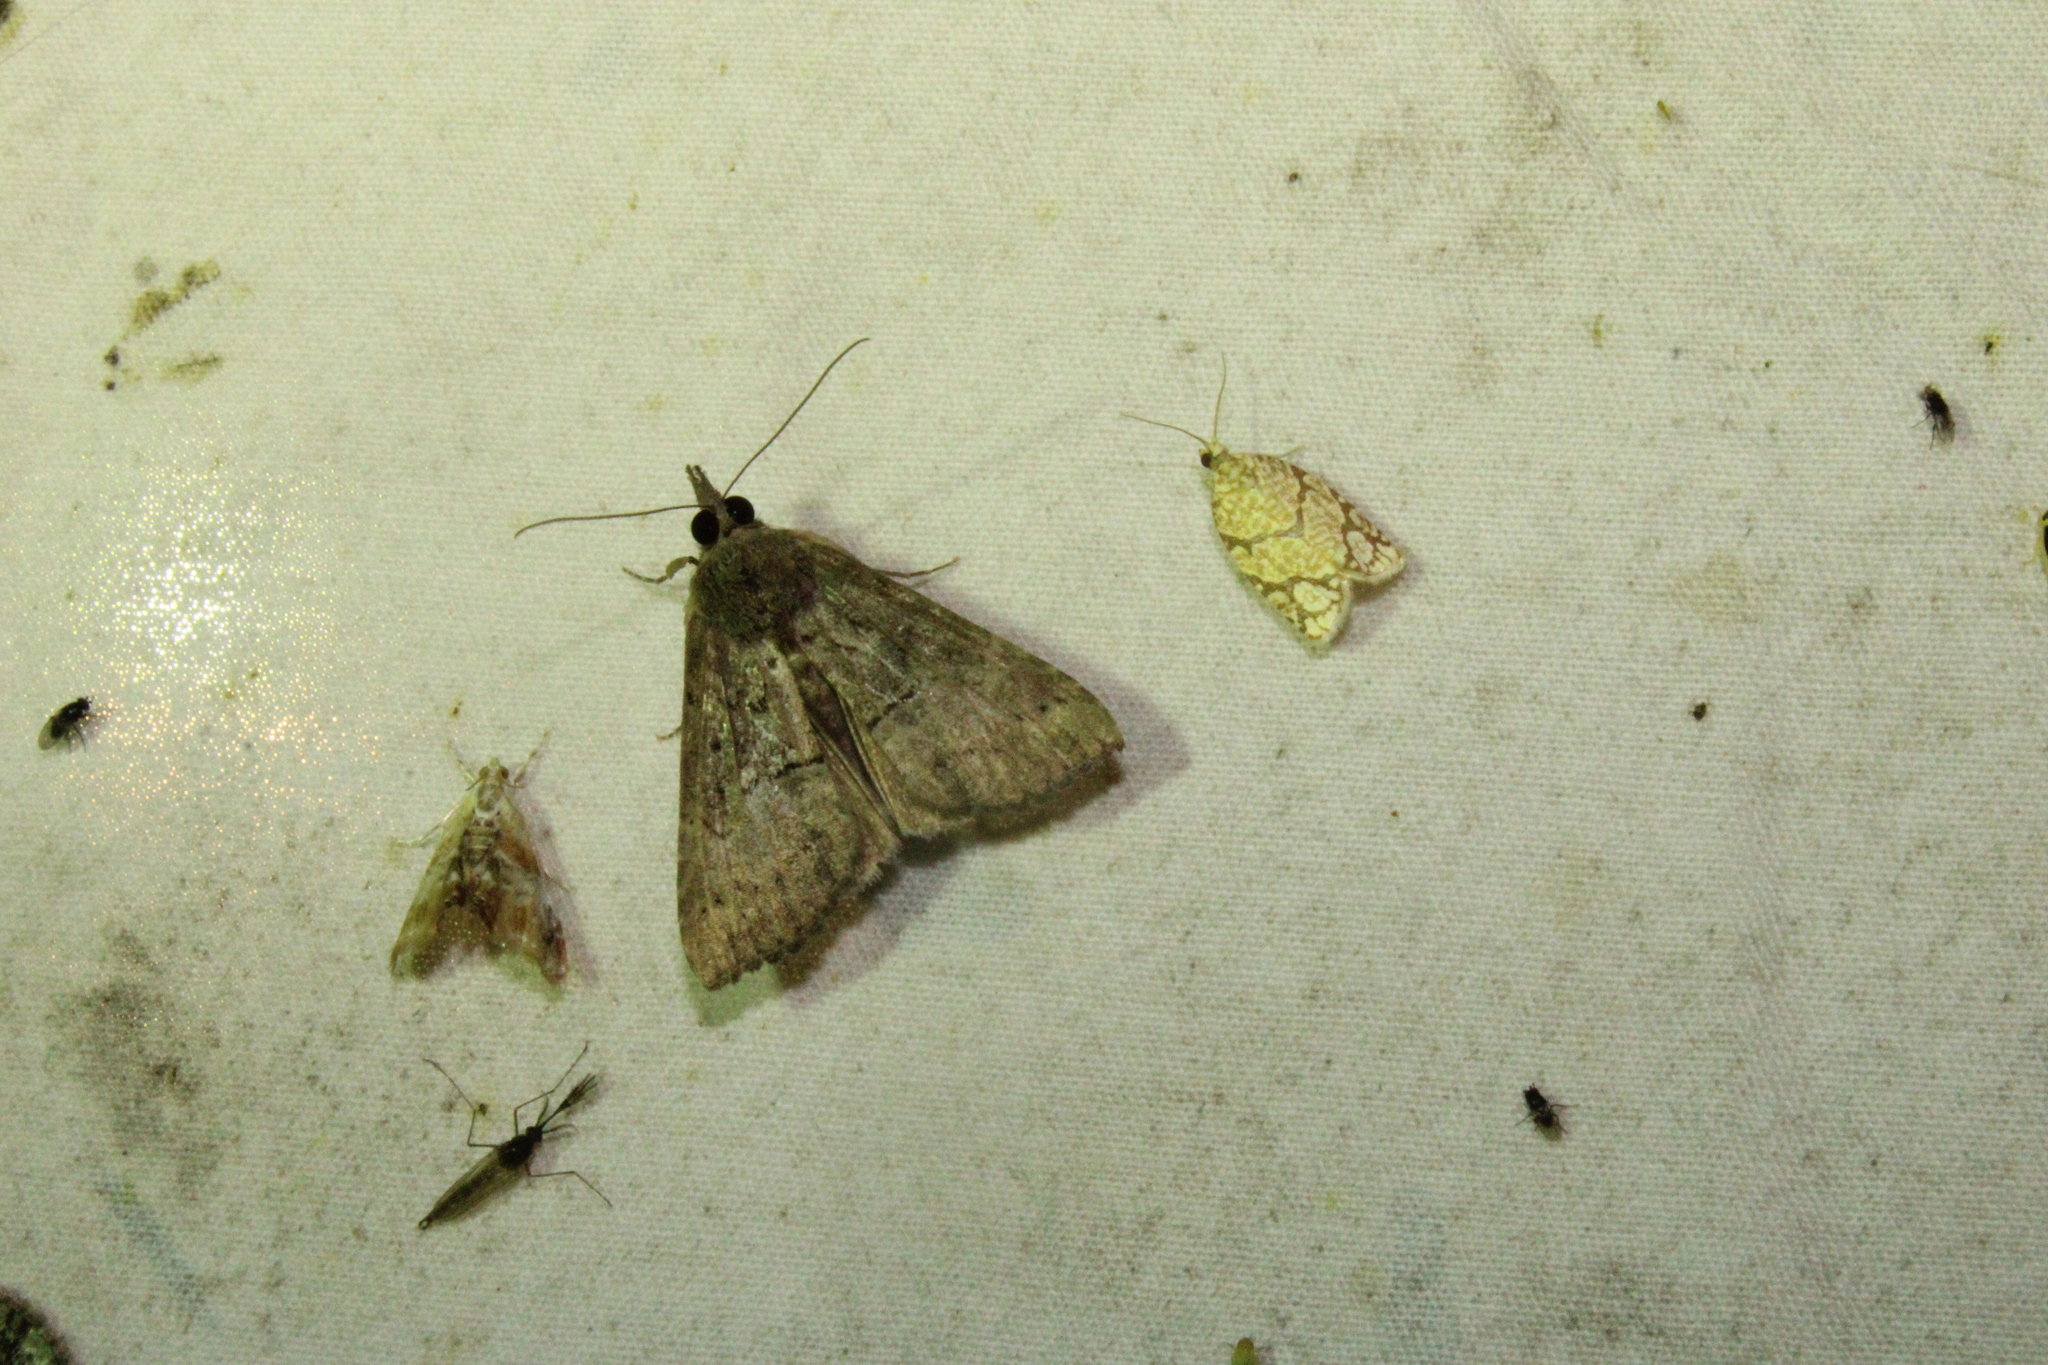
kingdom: Animalia
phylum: Arthropoda
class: Insecta
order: Lepidoptera
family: Erebidae
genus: Hypena
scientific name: Hypena scabra
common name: Green cloverworm
